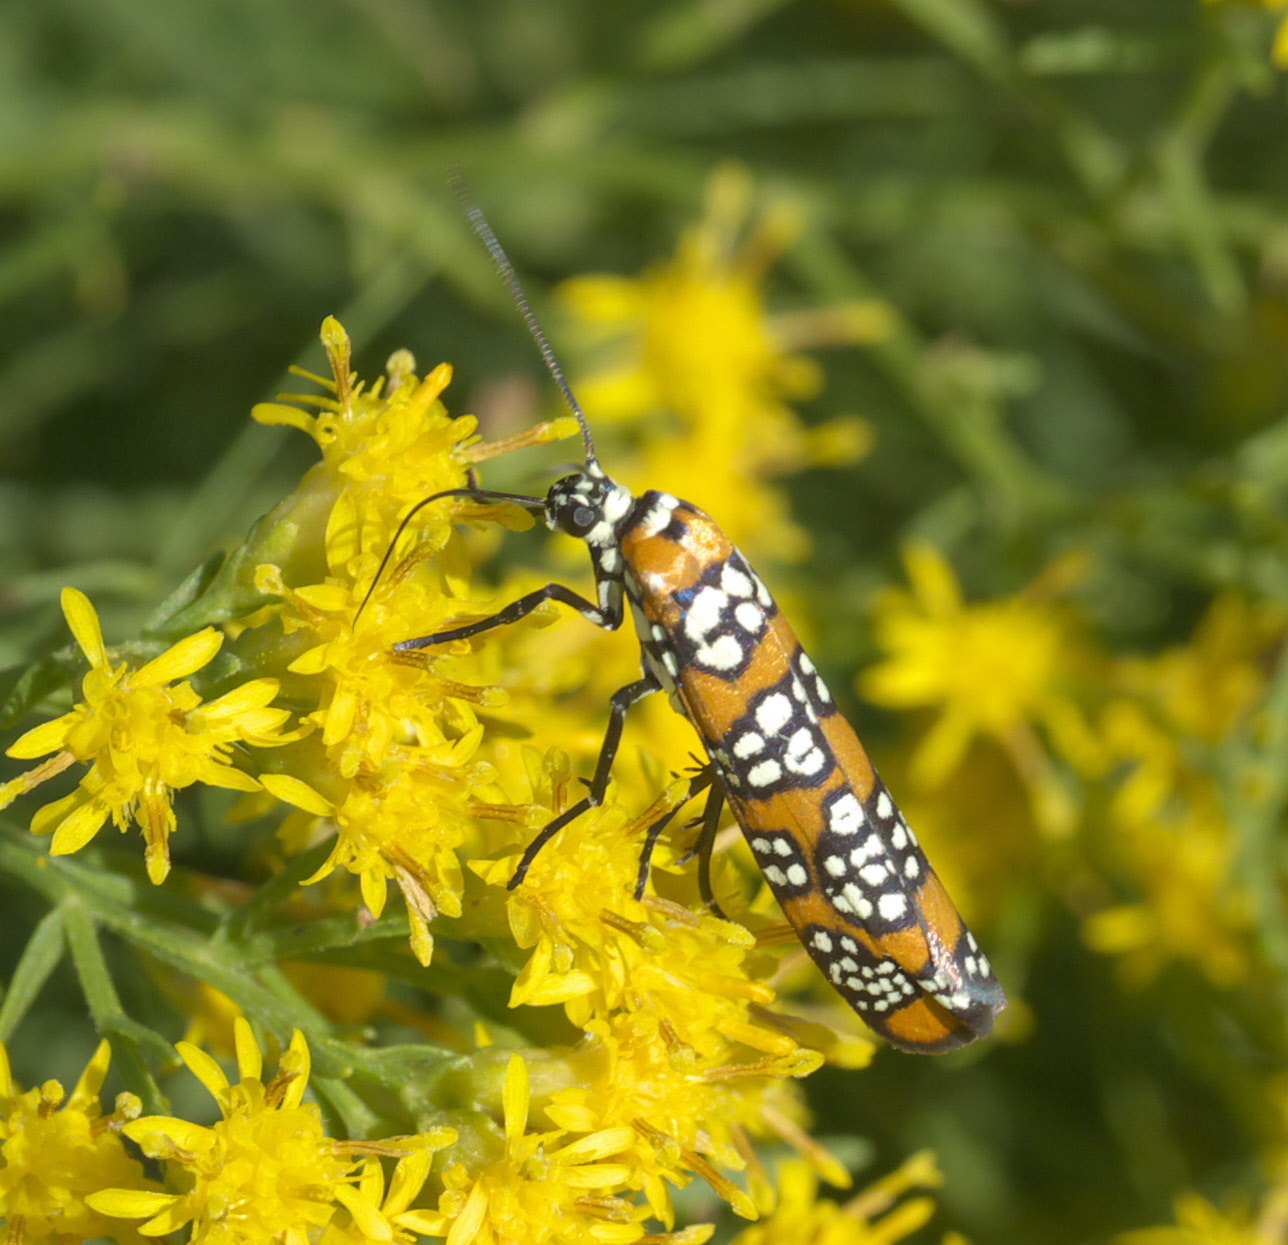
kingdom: Animalia
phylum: Arthropoda
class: Insecta
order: Lepidoptera
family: Attevidae
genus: Atteva
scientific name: Atteva punctella
